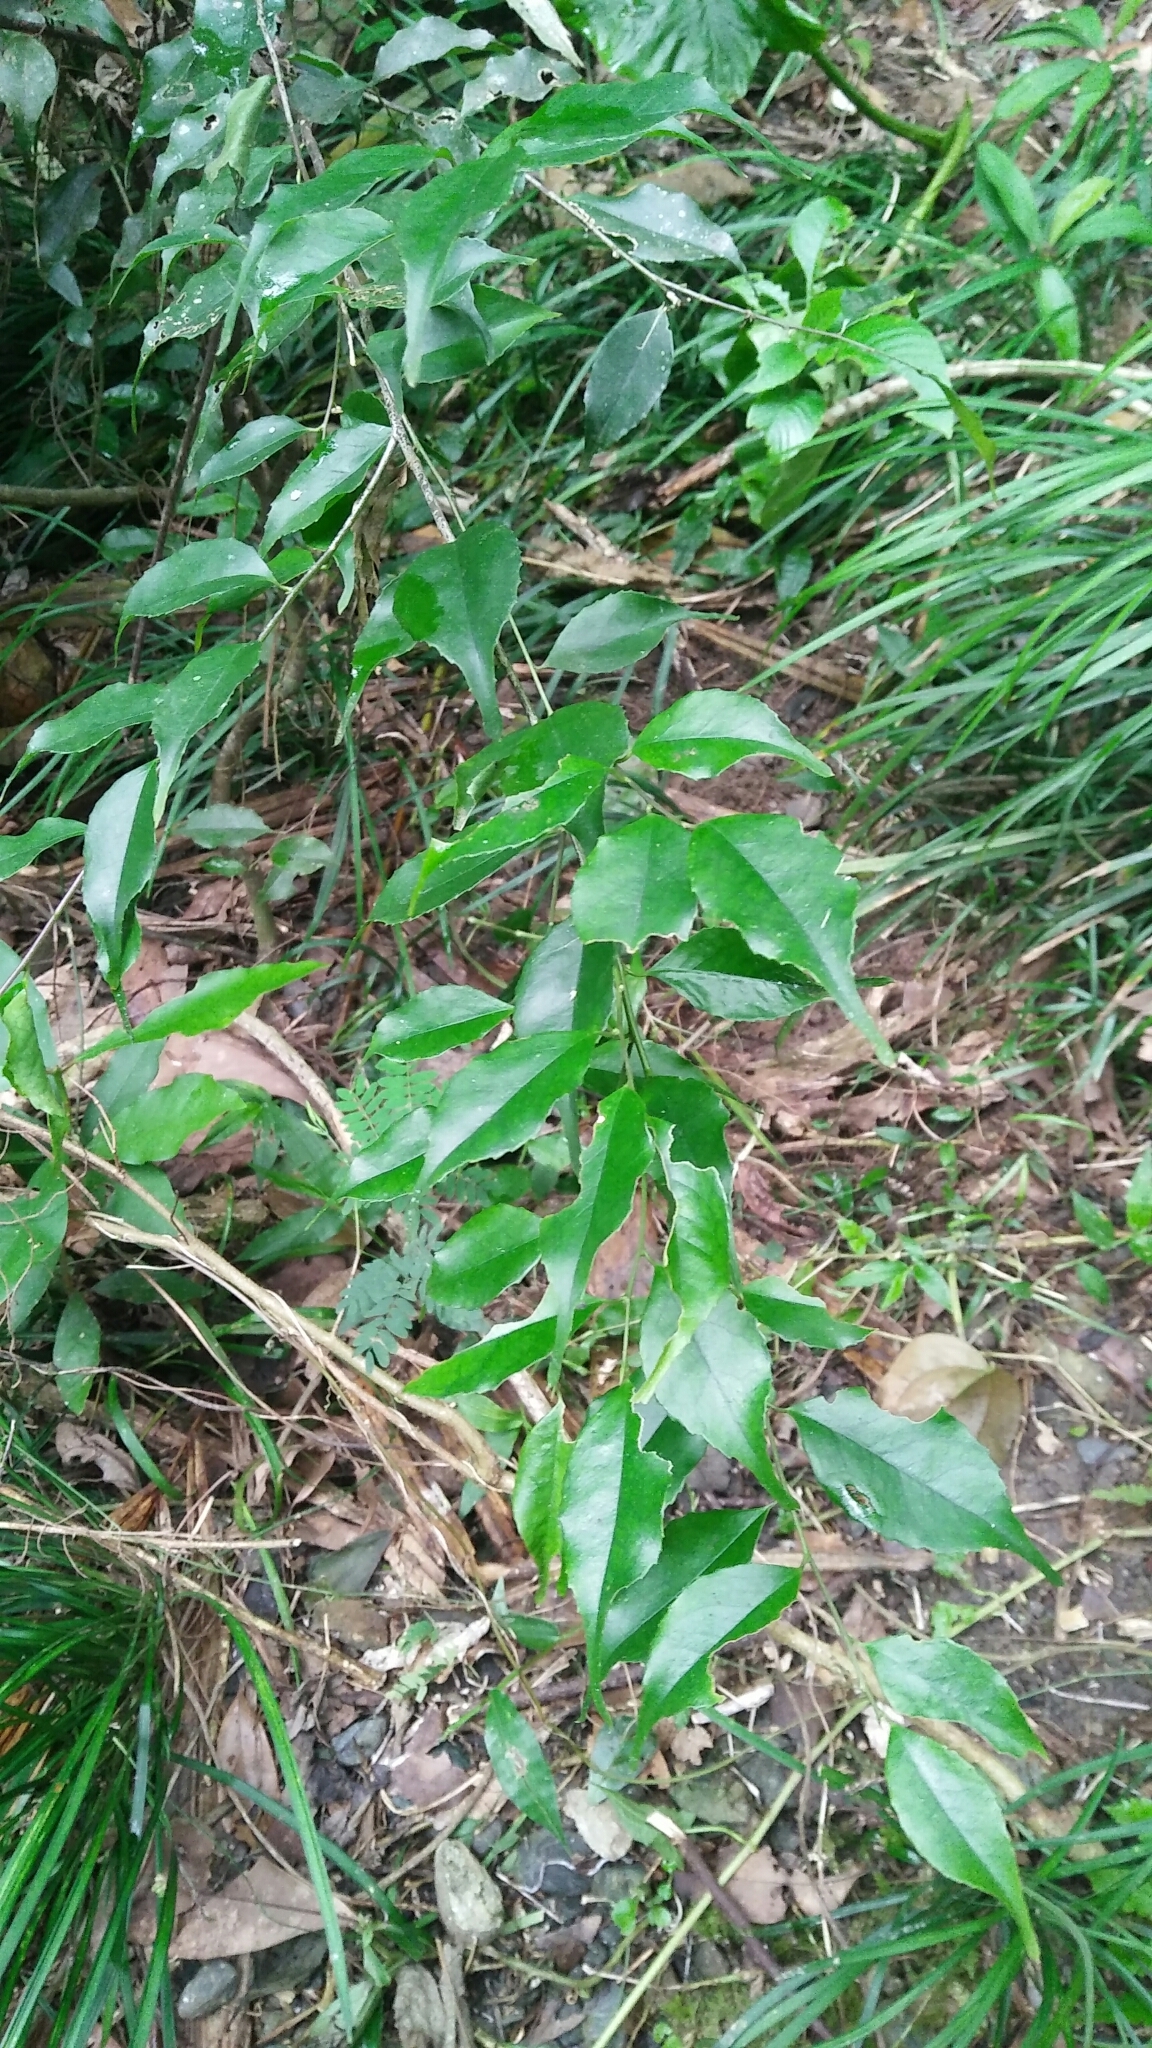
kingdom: Plantae
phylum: Tracheophyta
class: Magnoliopsida
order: Ericales
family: Symplocaceae
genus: Symplocos
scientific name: Symplocos sumuntia
